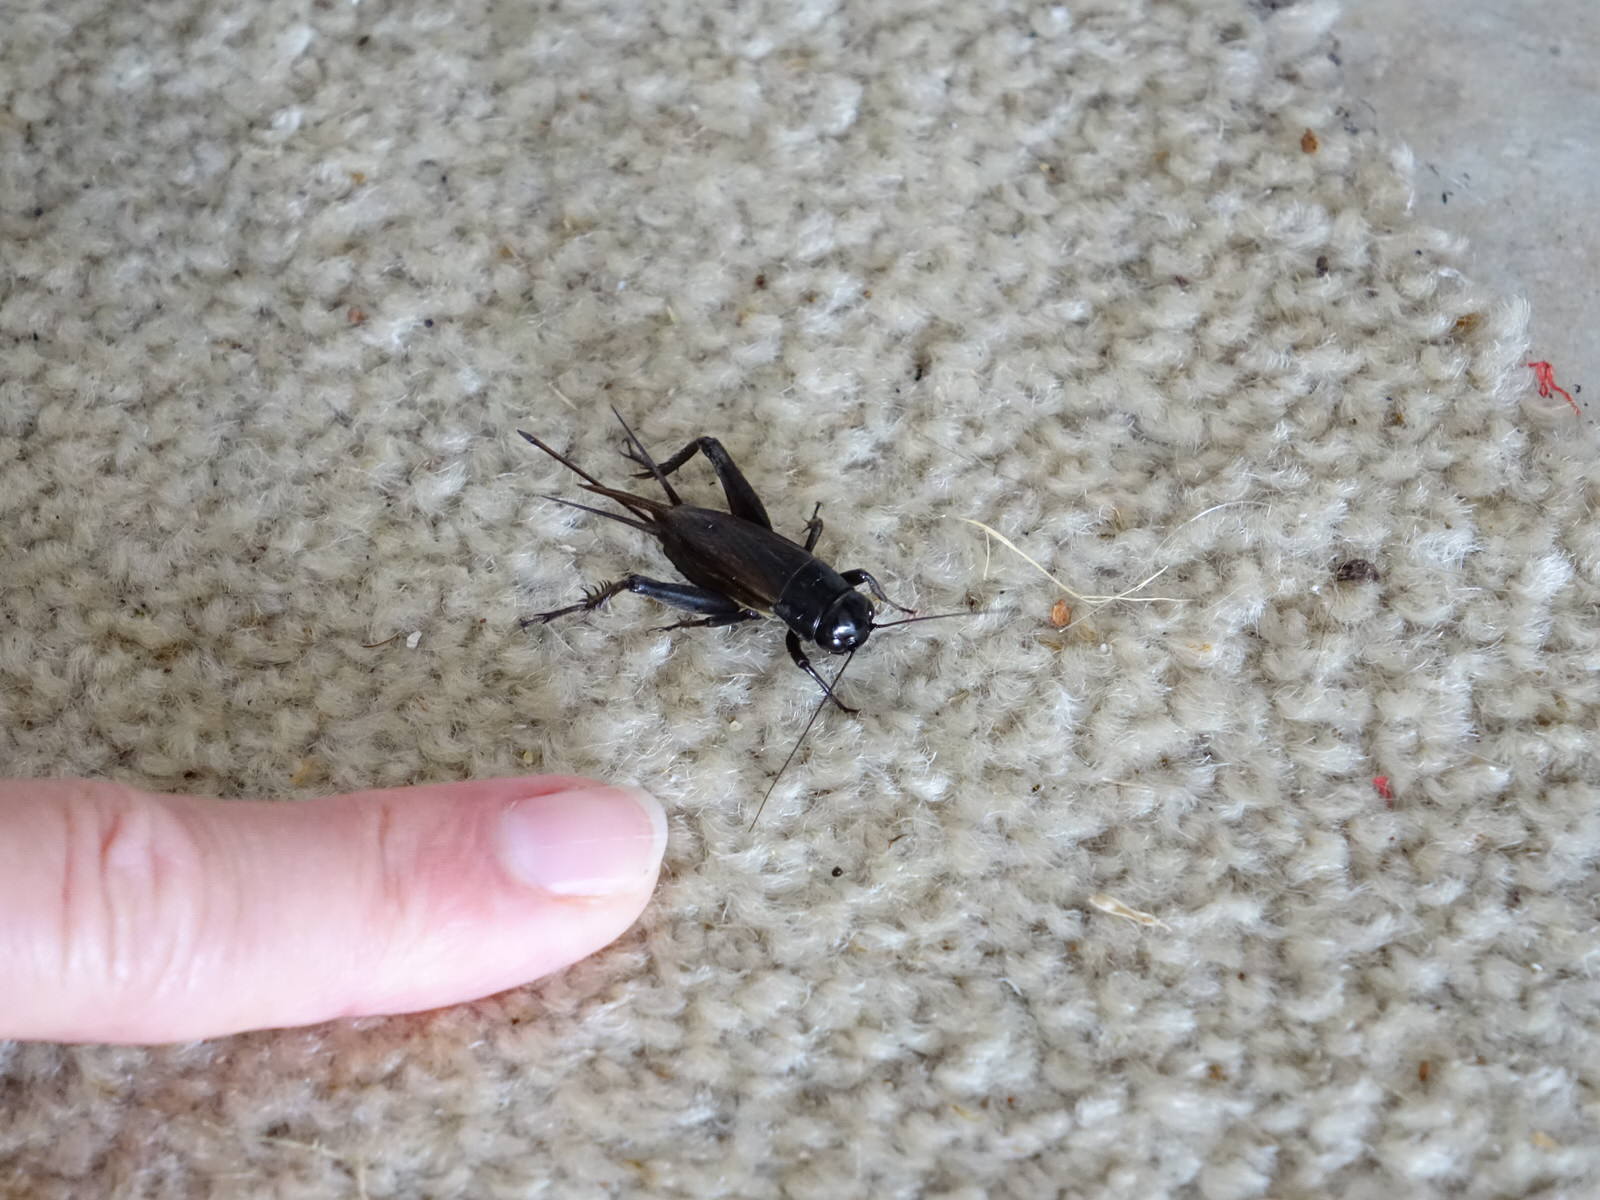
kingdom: Animalia
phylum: Arthropoda
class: Insecta
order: Orthoptera
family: Gryllidae
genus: Teleogryllus
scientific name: Teleogryllus commodus
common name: Black field cricket
